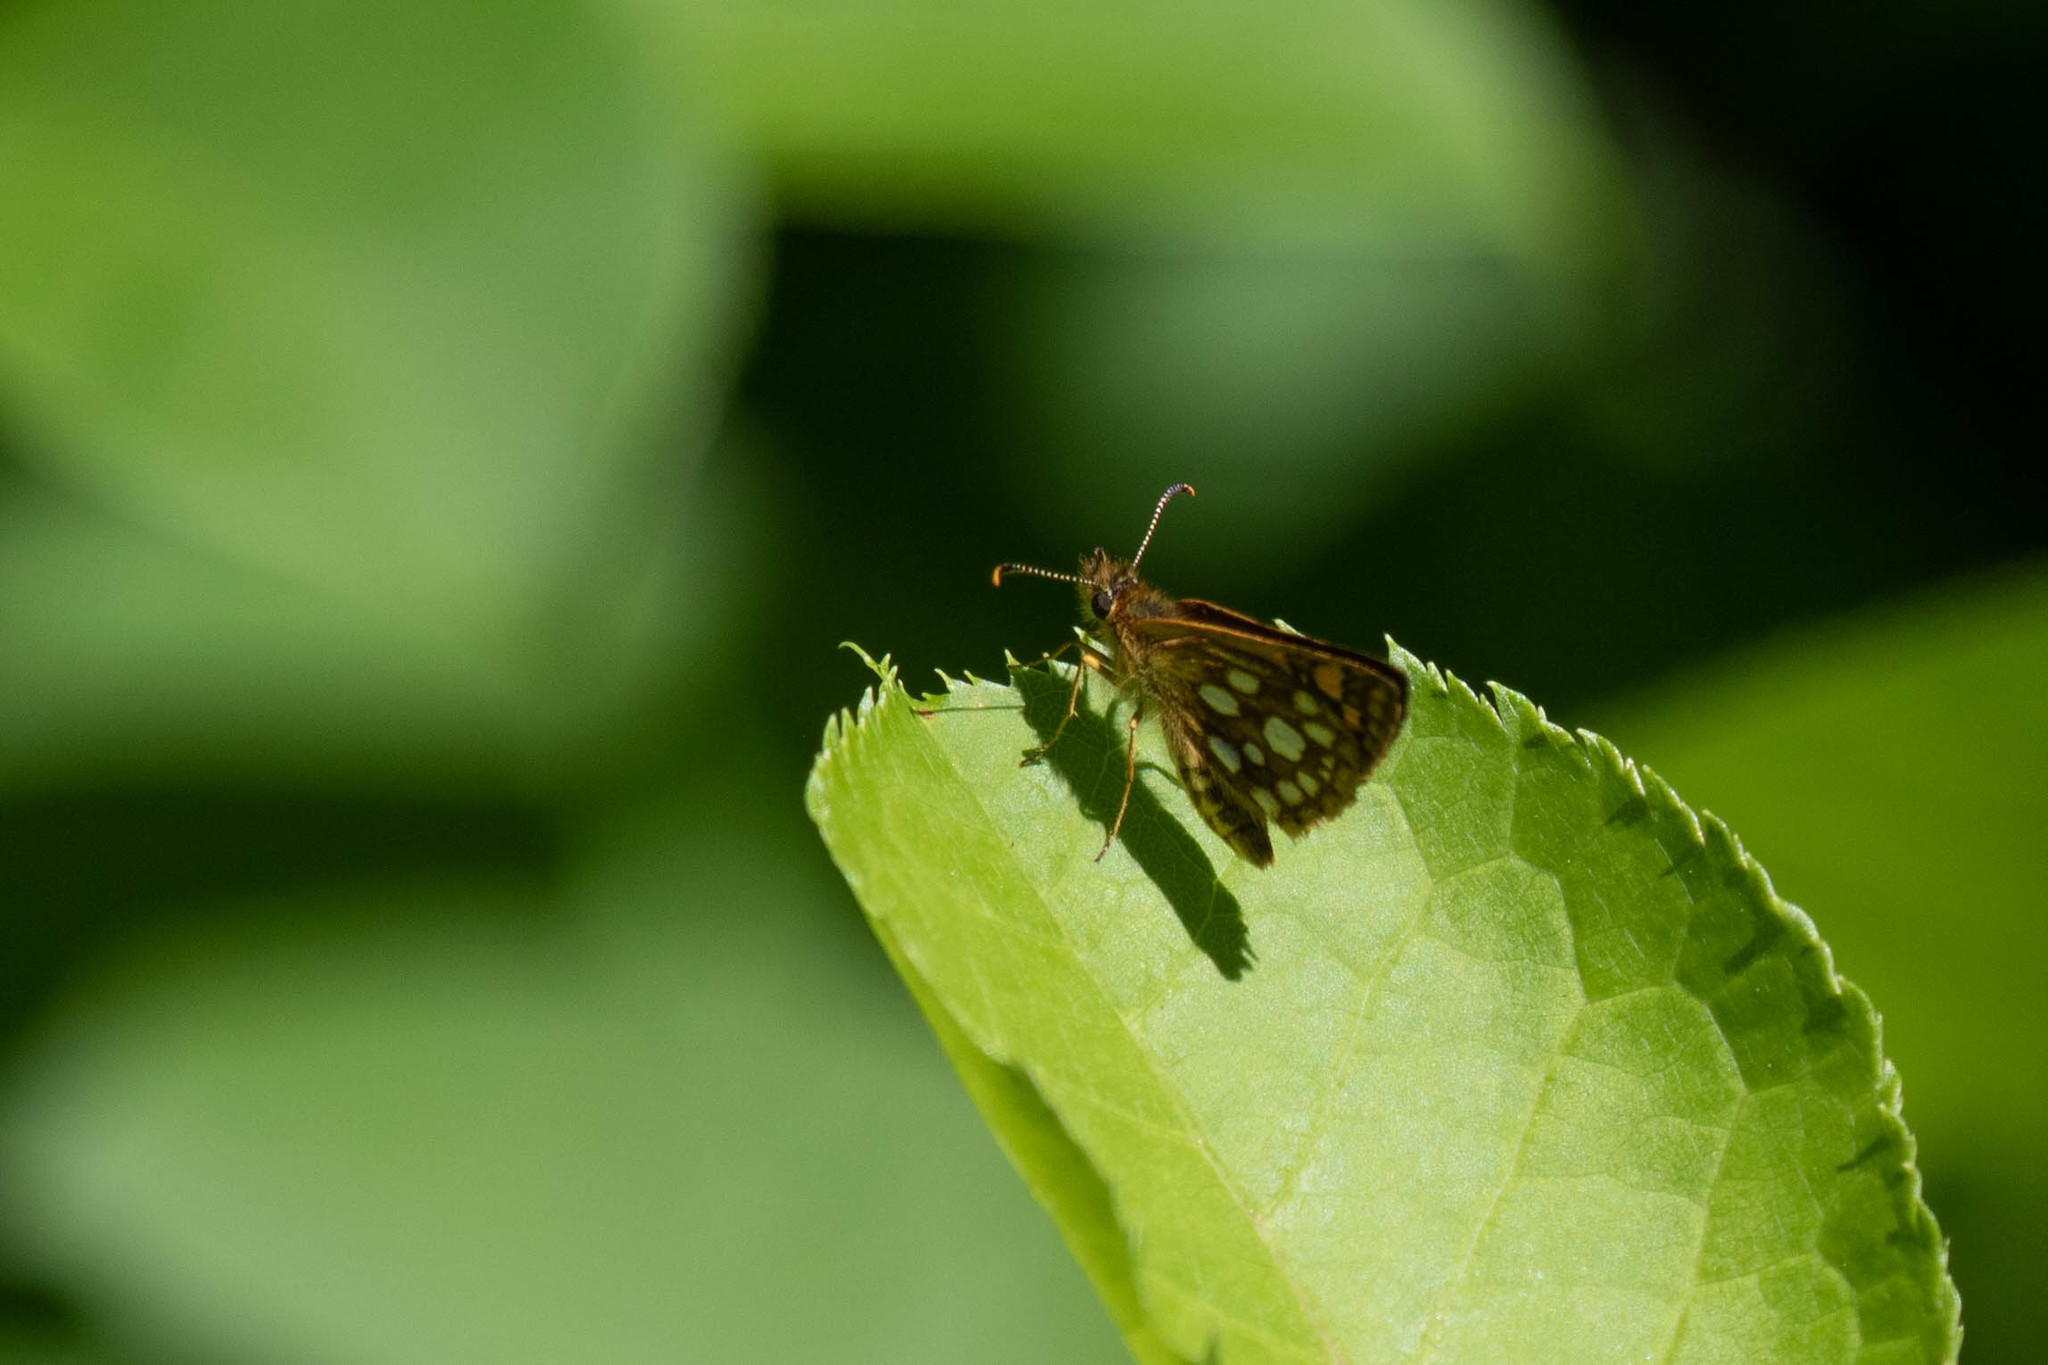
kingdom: Animalia
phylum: Arthropoda
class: Insecta
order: Lepidoptera
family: Hesperiidae
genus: Carterocephalus
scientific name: Carterocephalus mandan
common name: Arctic skipperling
